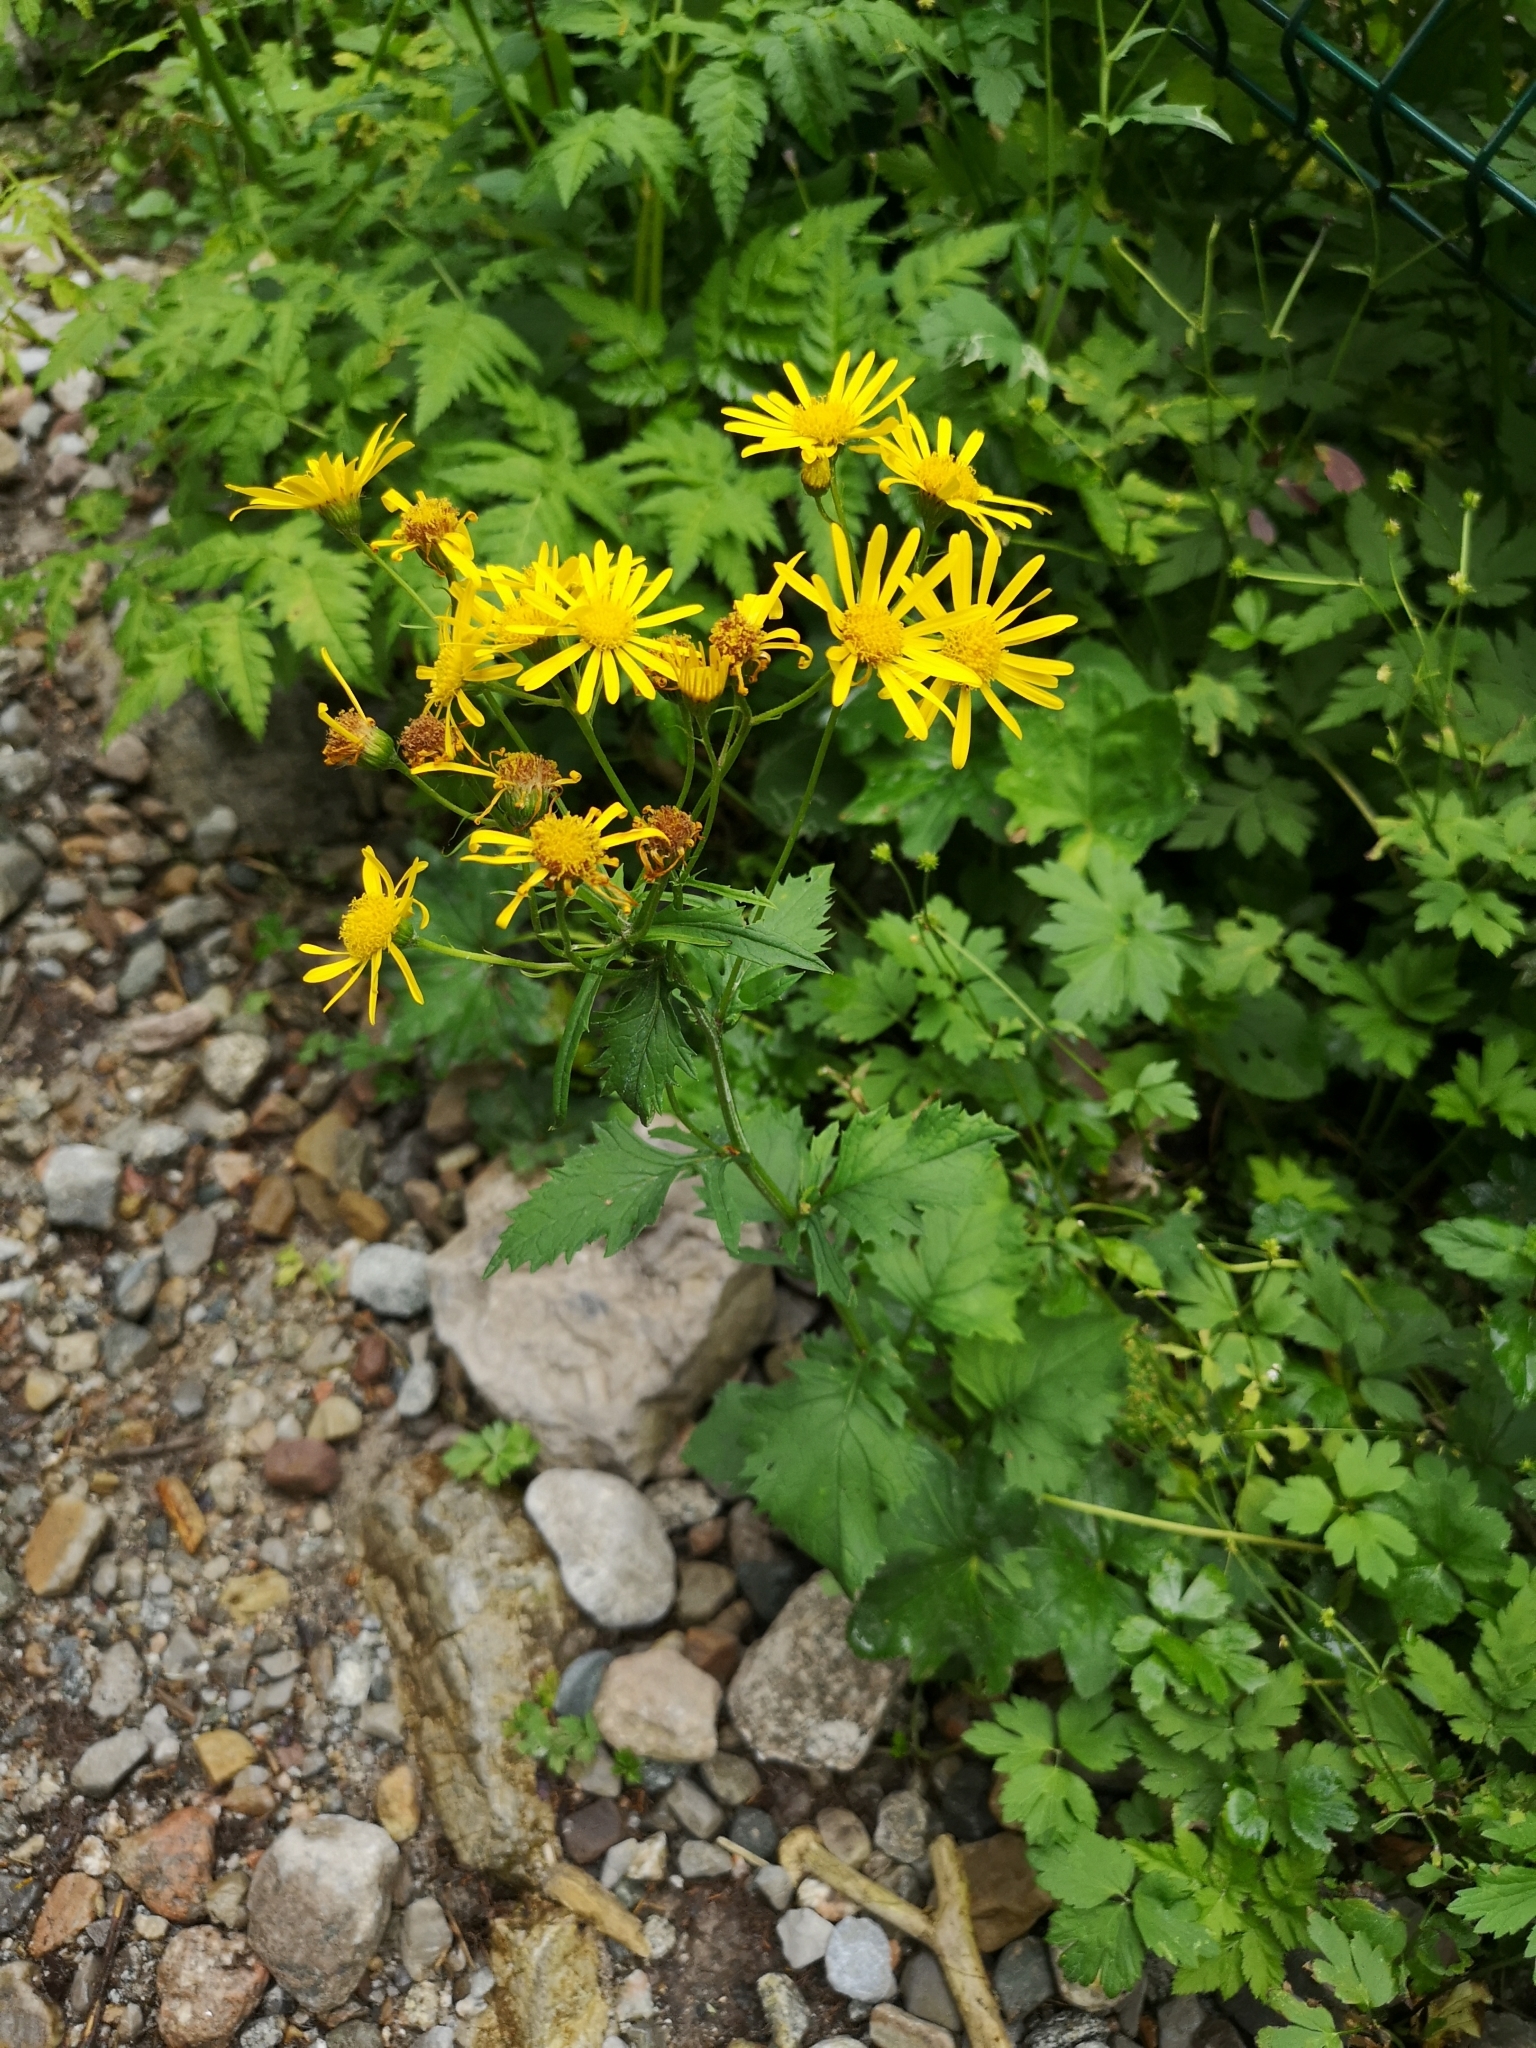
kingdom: Plantae
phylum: Tracheophyta
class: Magnoliopsida
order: Asterales
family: Asteraceae
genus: Jacobaea
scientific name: Jacobaea subalpina
